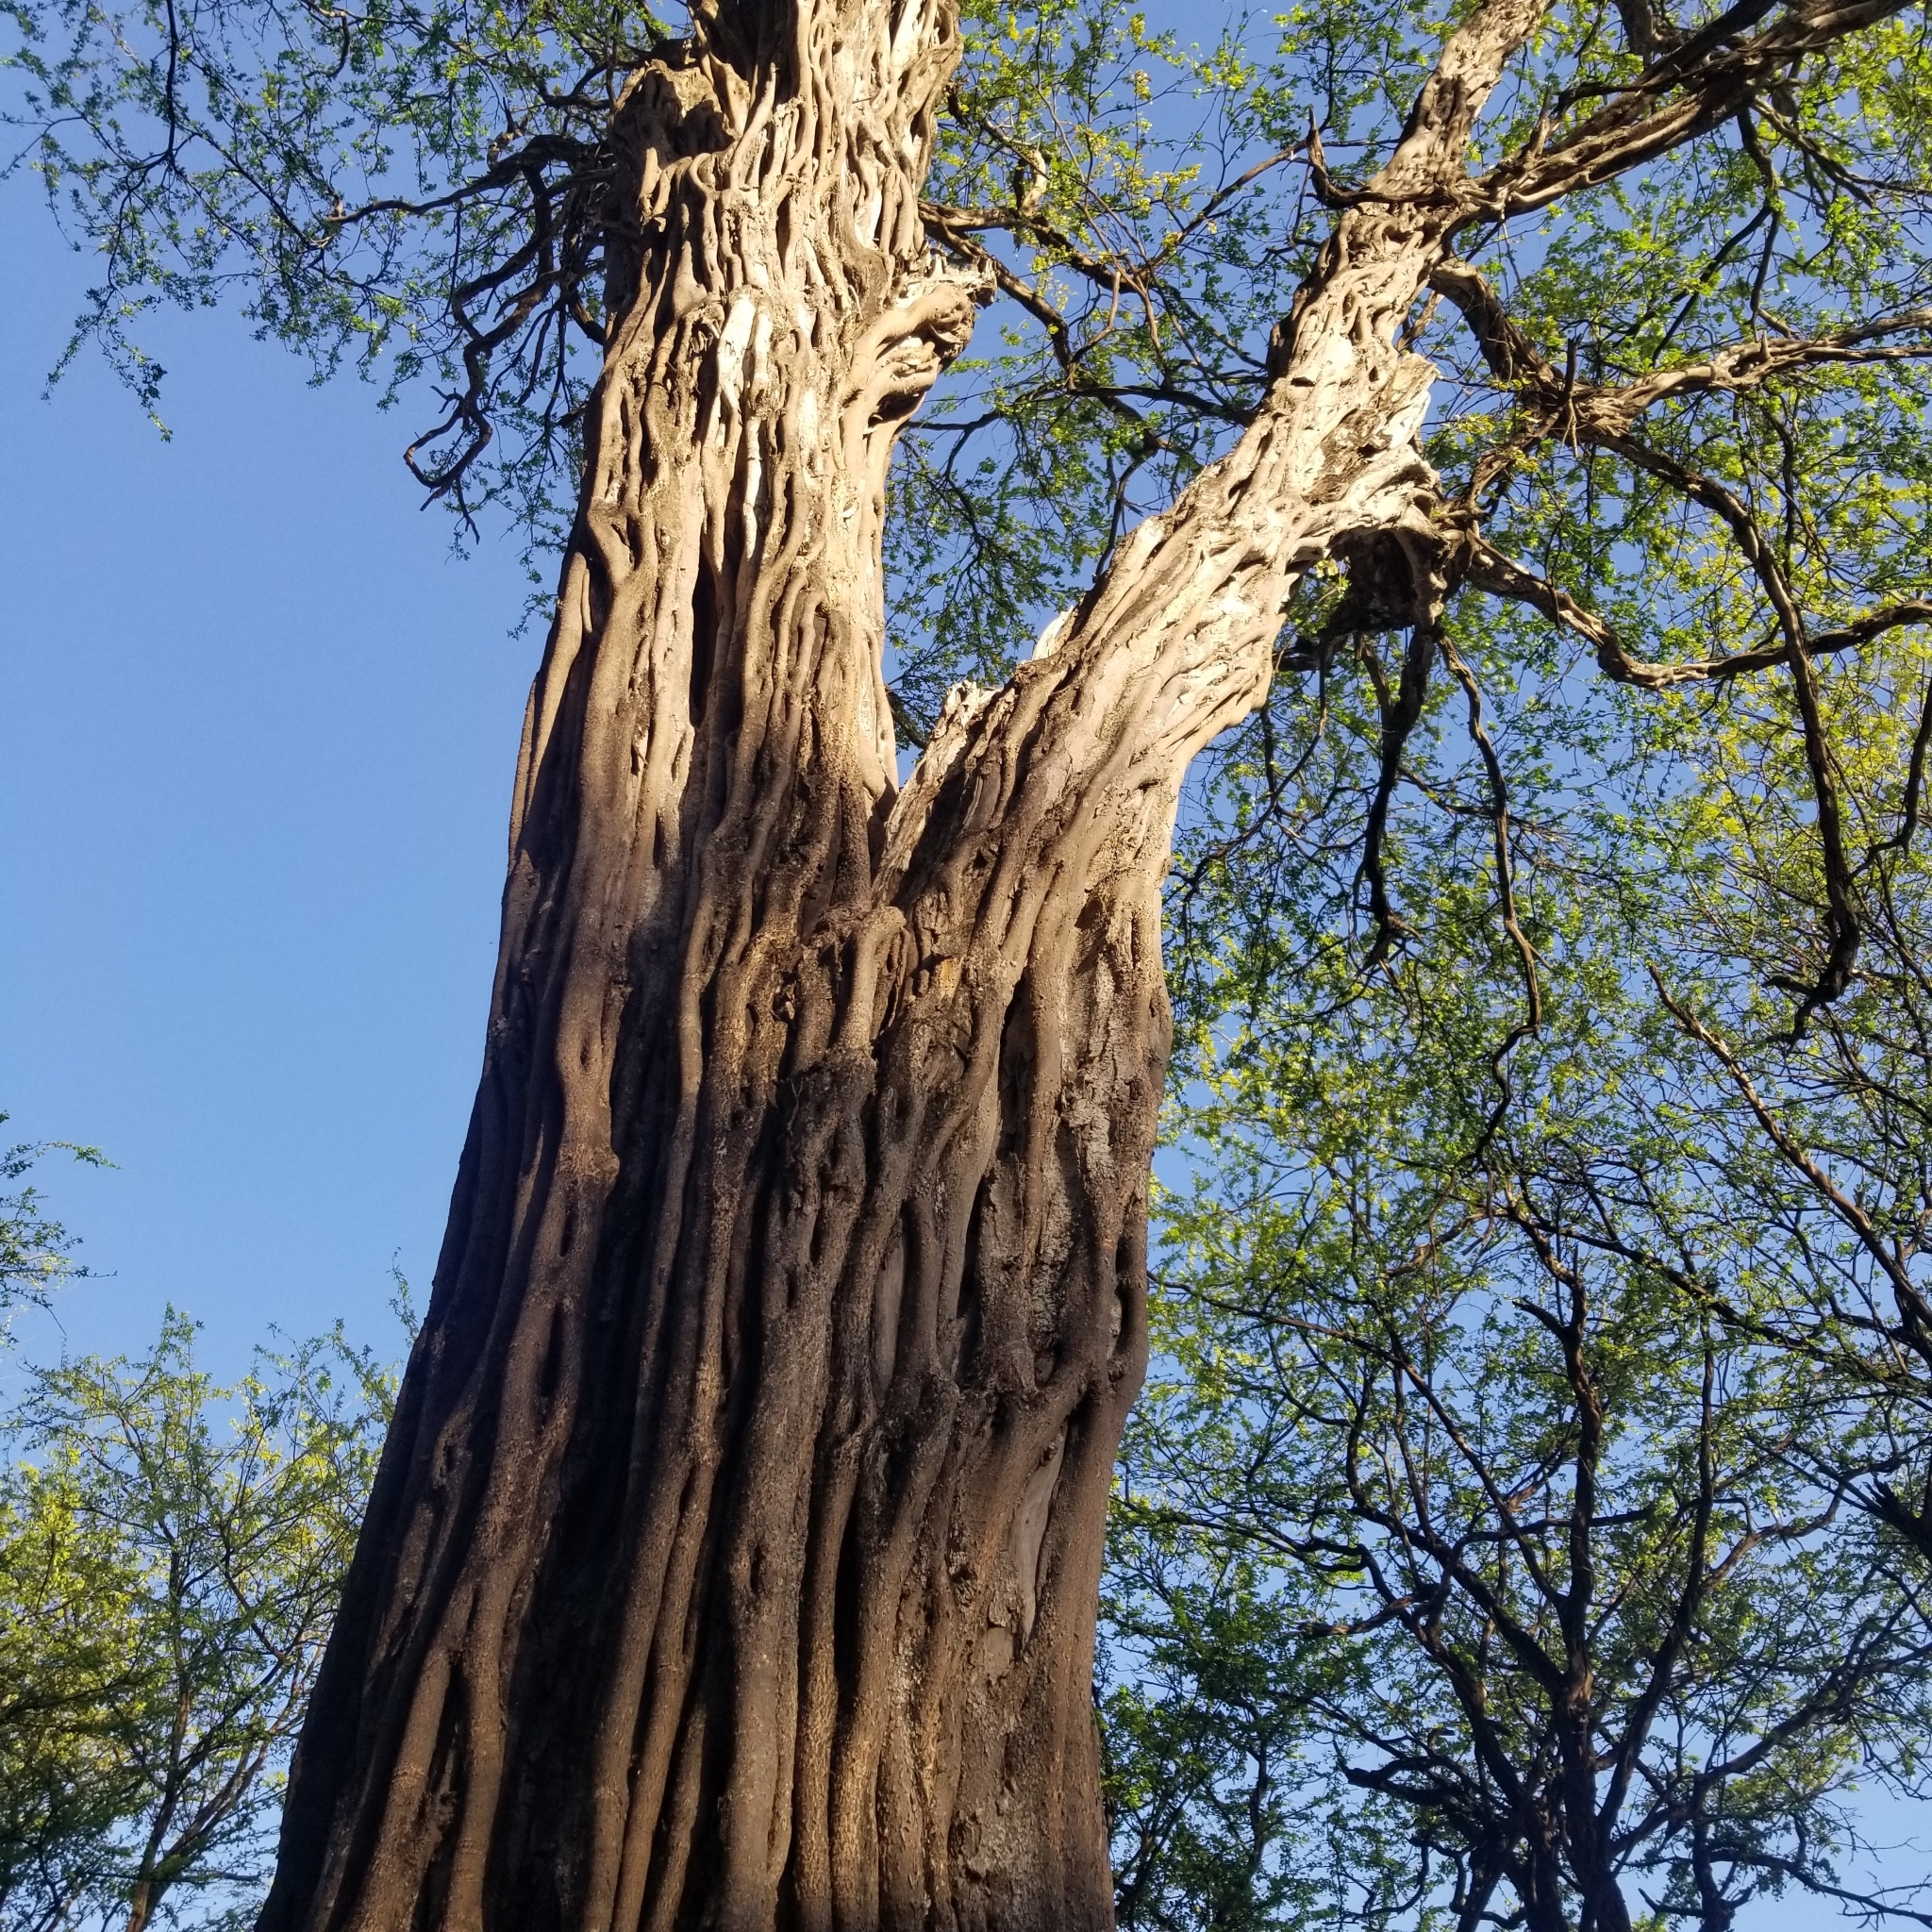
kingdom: Plantae
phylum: Tracheophyta
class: Magnoliopsida
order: Fabales
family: Fabaceae
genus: Haematoxylum
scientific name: Haematoxylum brasiletto
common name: Peachwood
